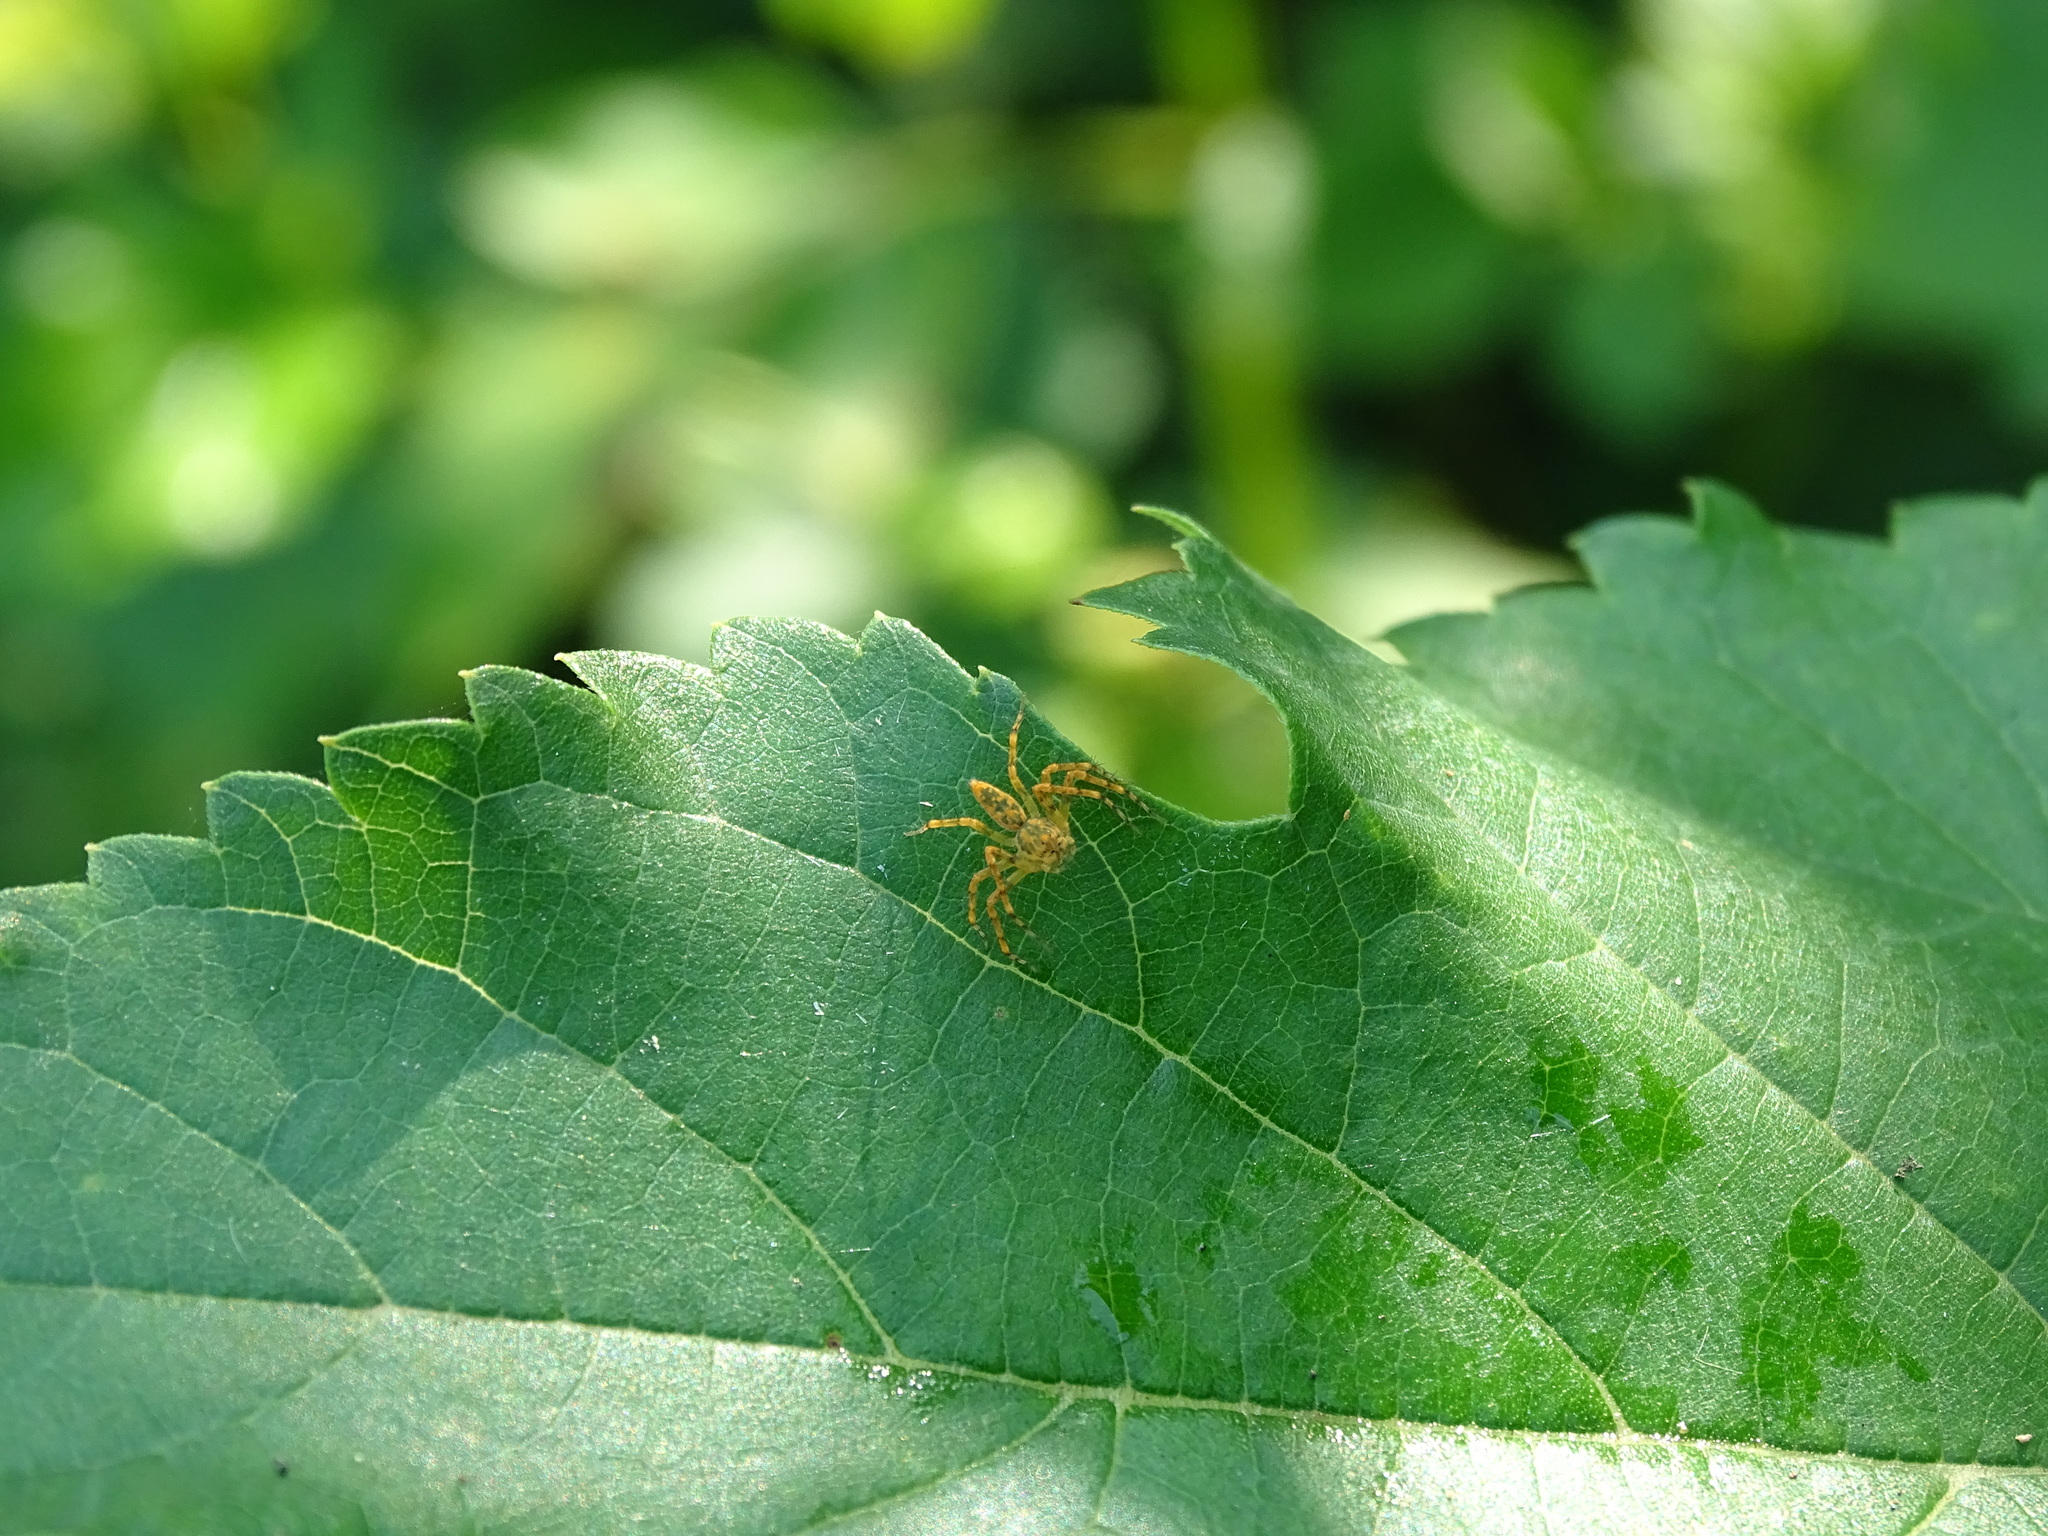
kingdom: Animalia
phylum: Arthropoda
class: Arachnida
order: Araneae
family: Oxyopidae
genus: Hamadruas
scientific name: Hamadruas hieroglyphica
